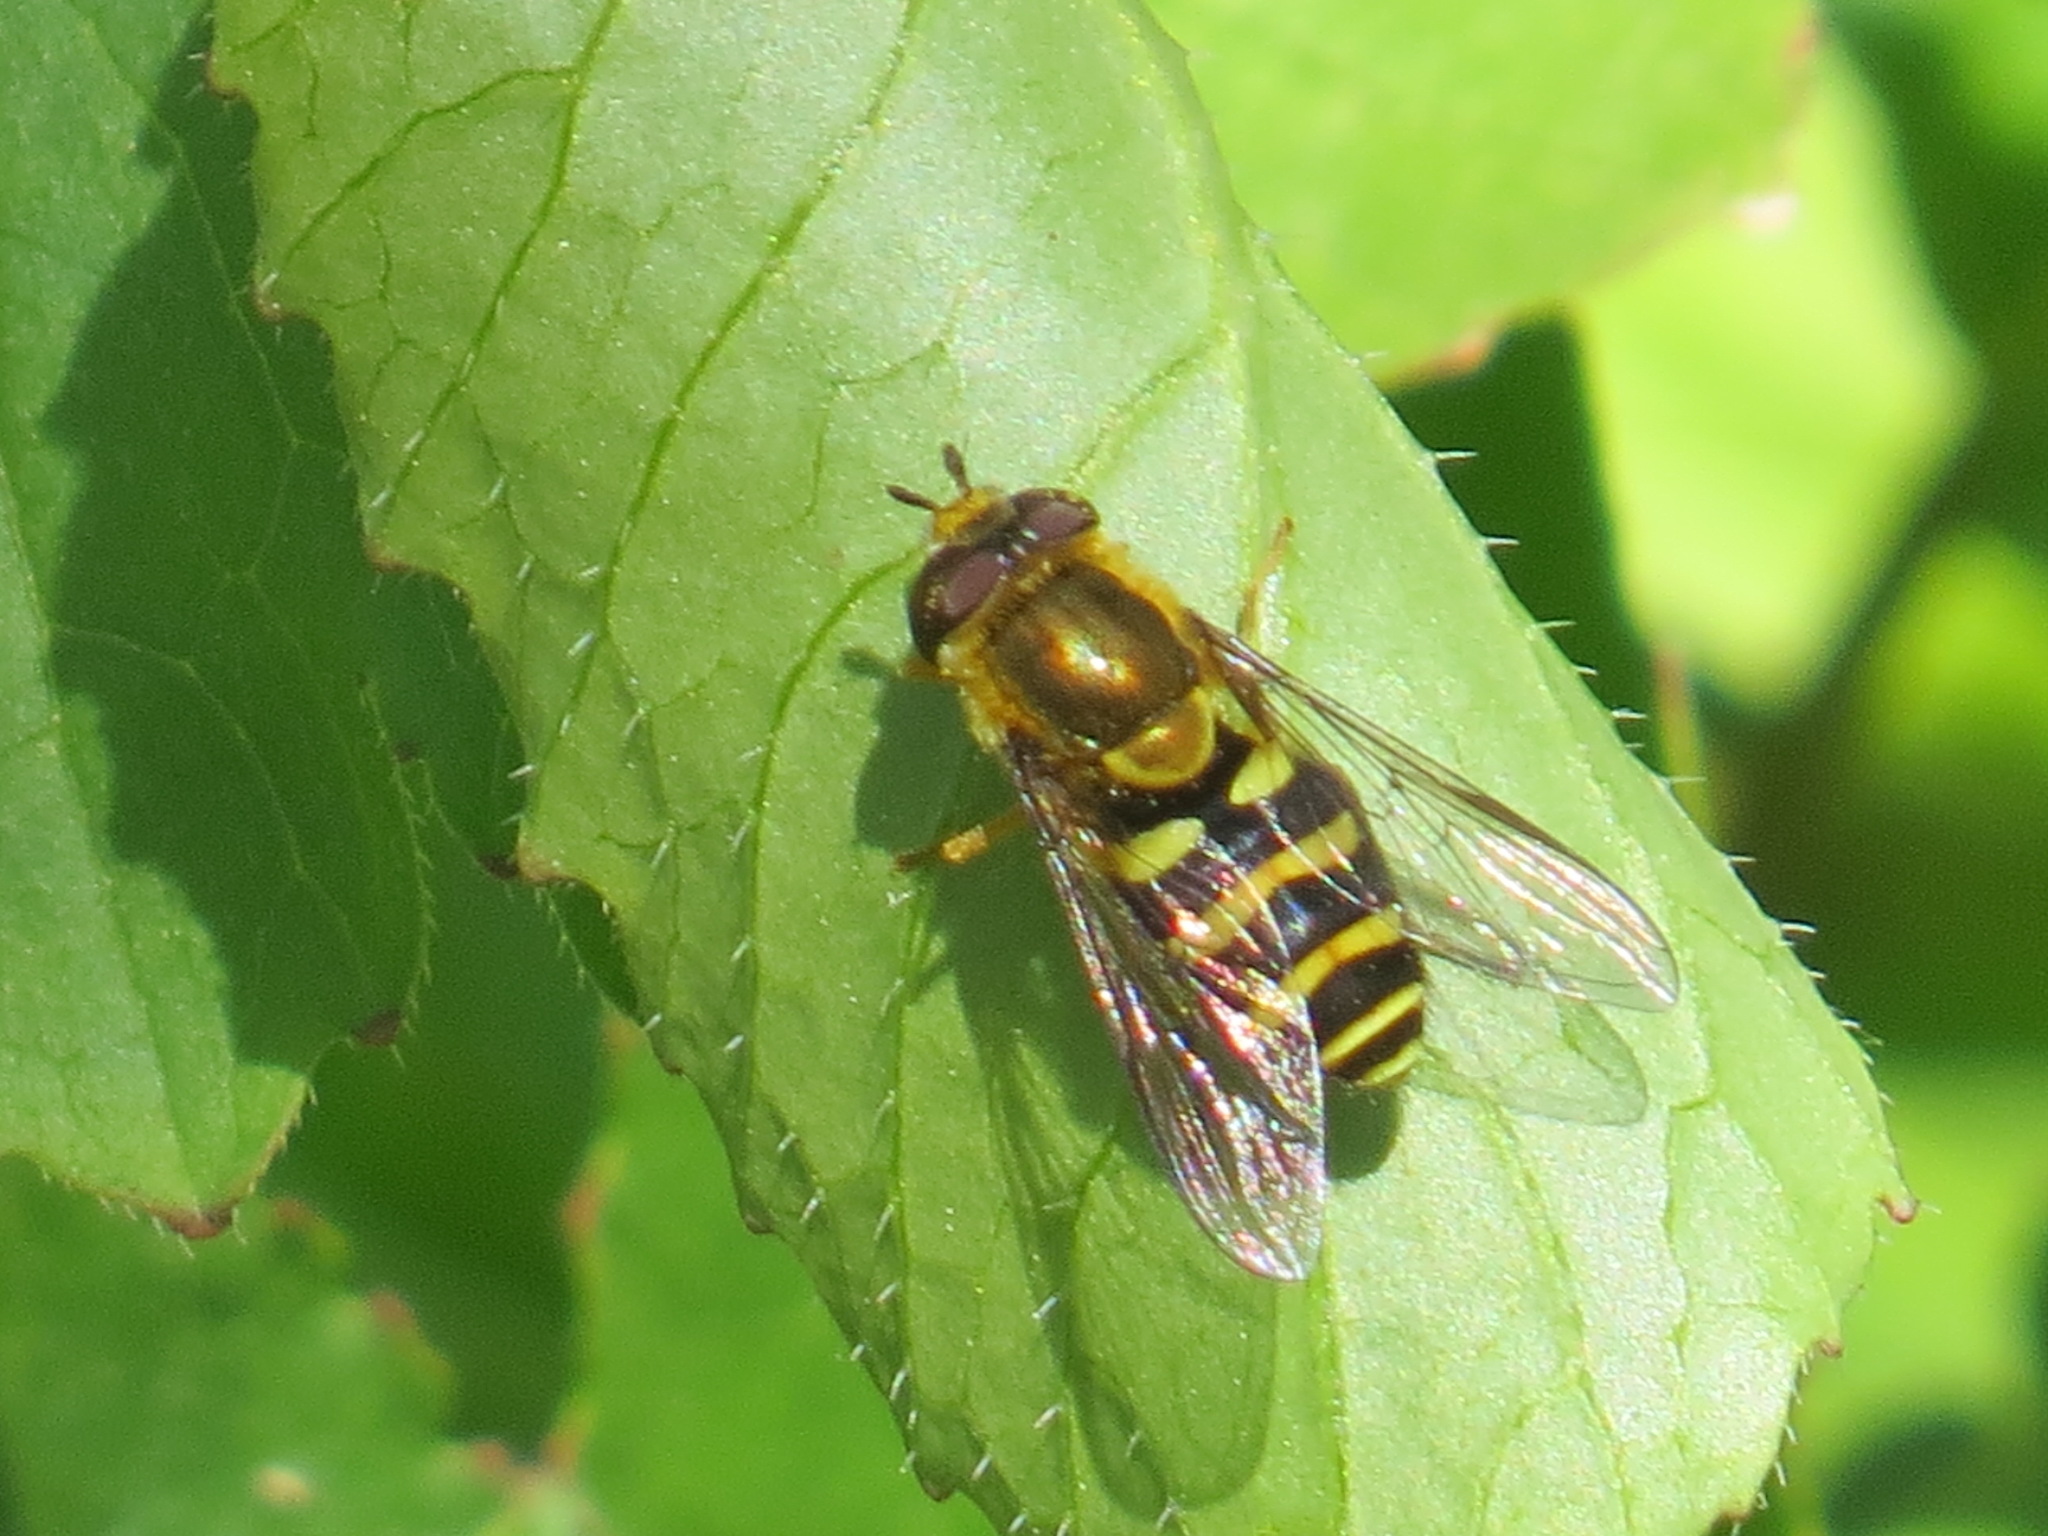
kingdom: Animalia
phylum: Arthropoda
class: Insecta
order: Diptera
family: Syrphidae
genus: Syrphus
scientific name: Syrphus opinator
